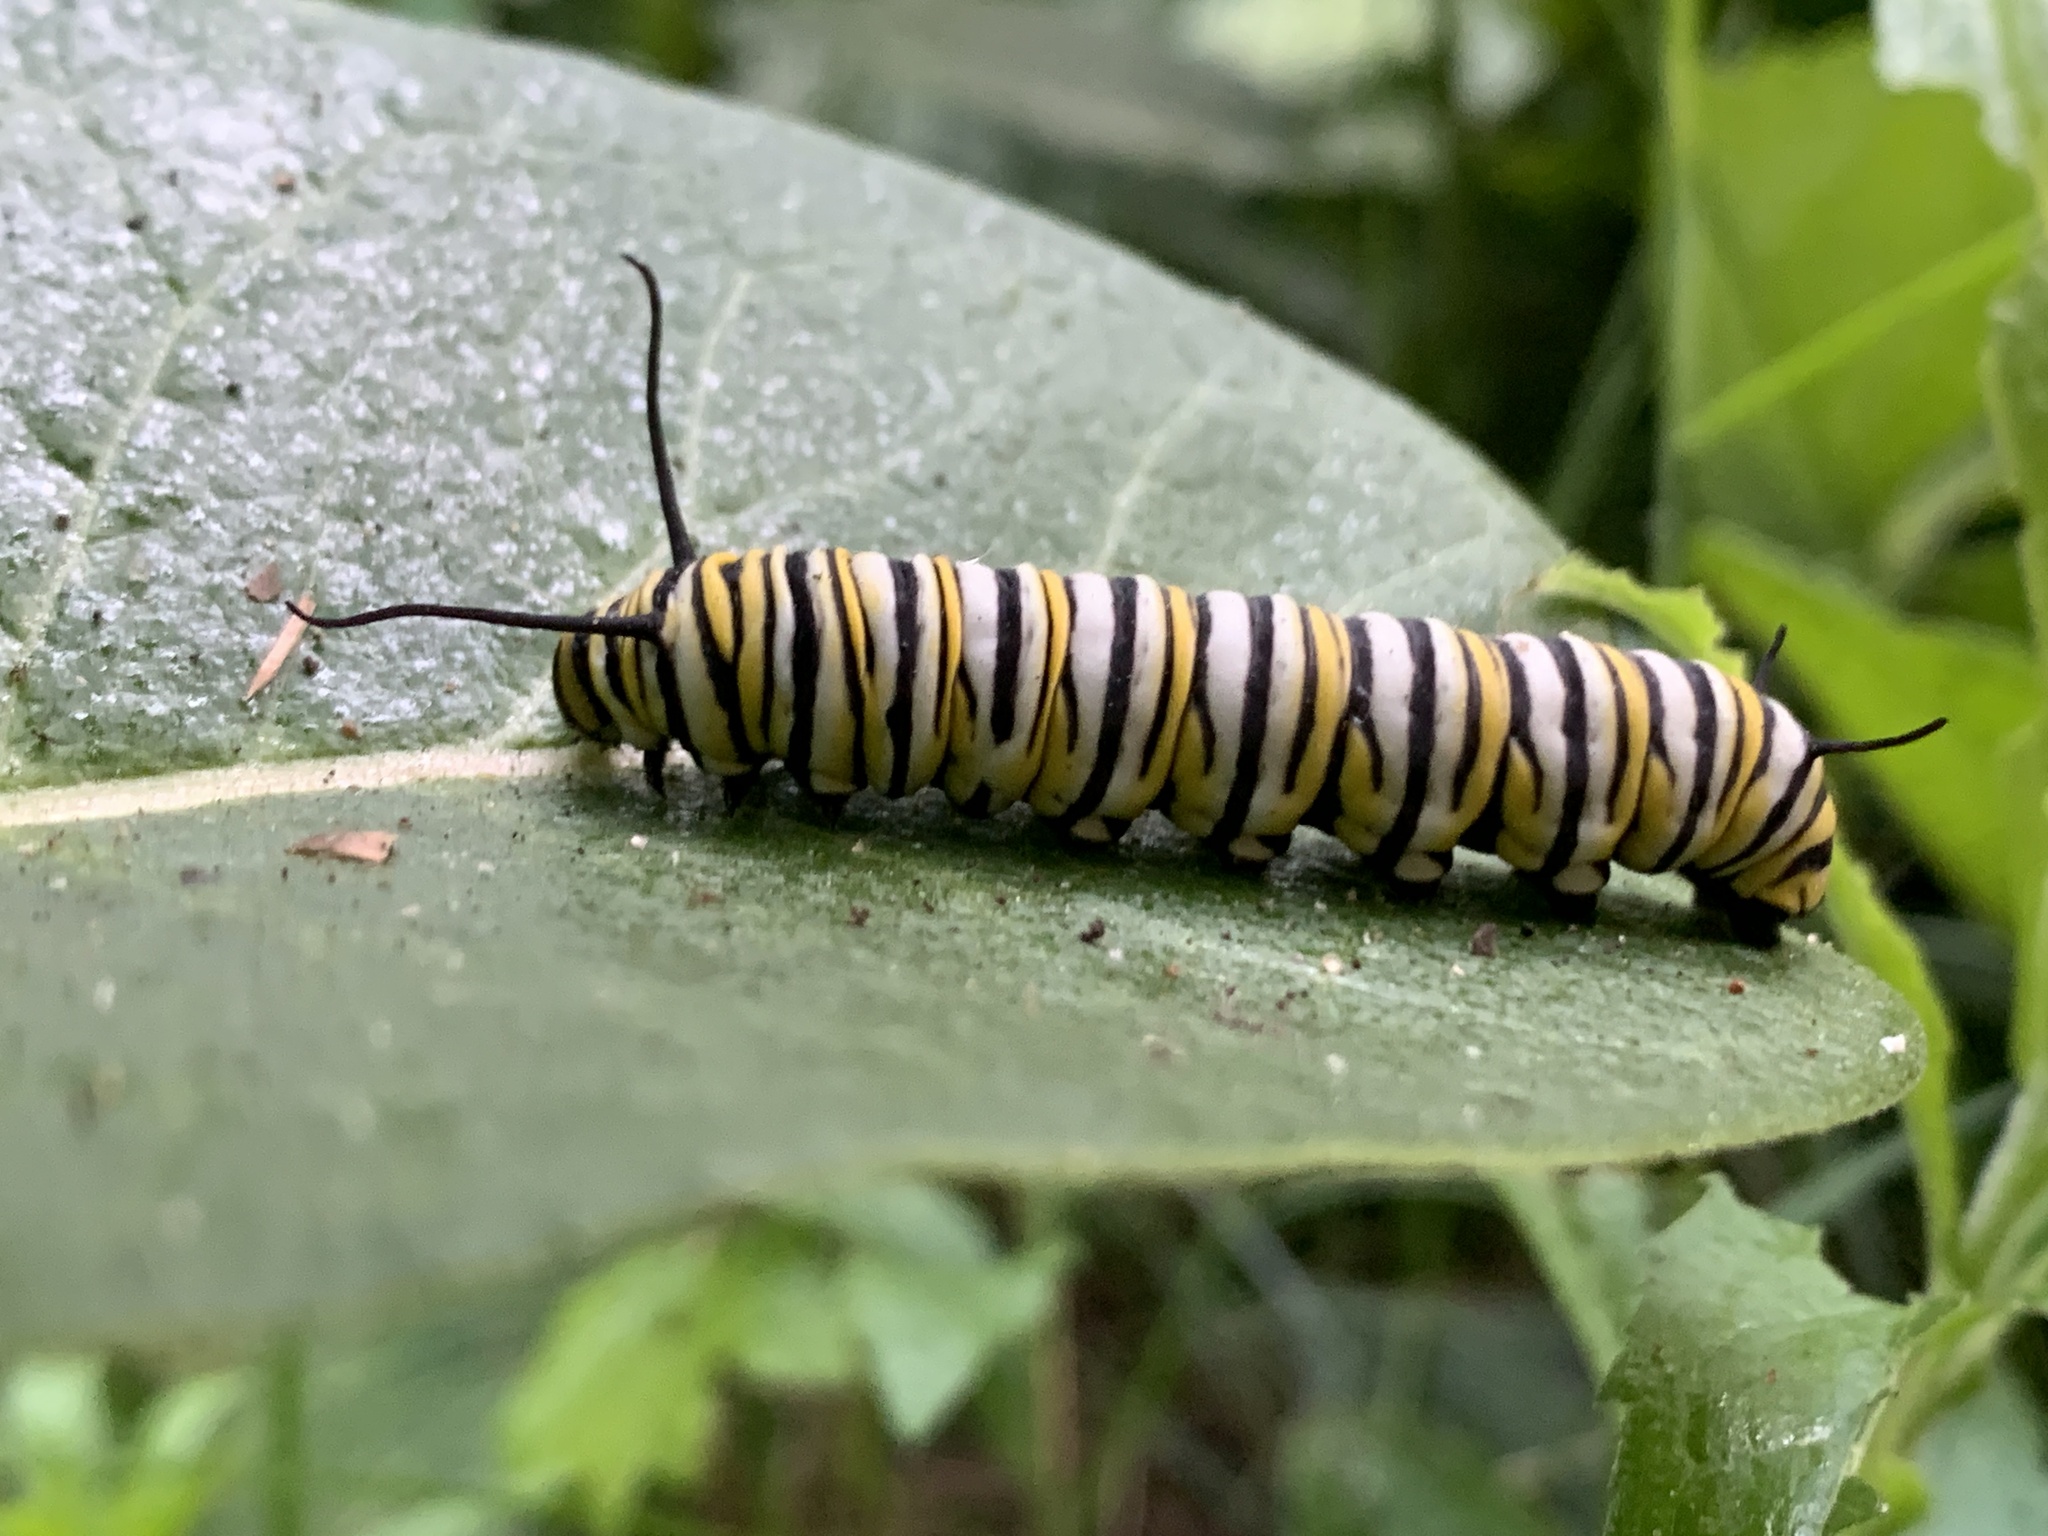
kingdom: Animalia
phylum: Arthropoda
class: Insecta
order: Lepidoptera
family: Nymphalidae
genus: Danaus
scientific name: Danaus plexippus
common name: Monarch
